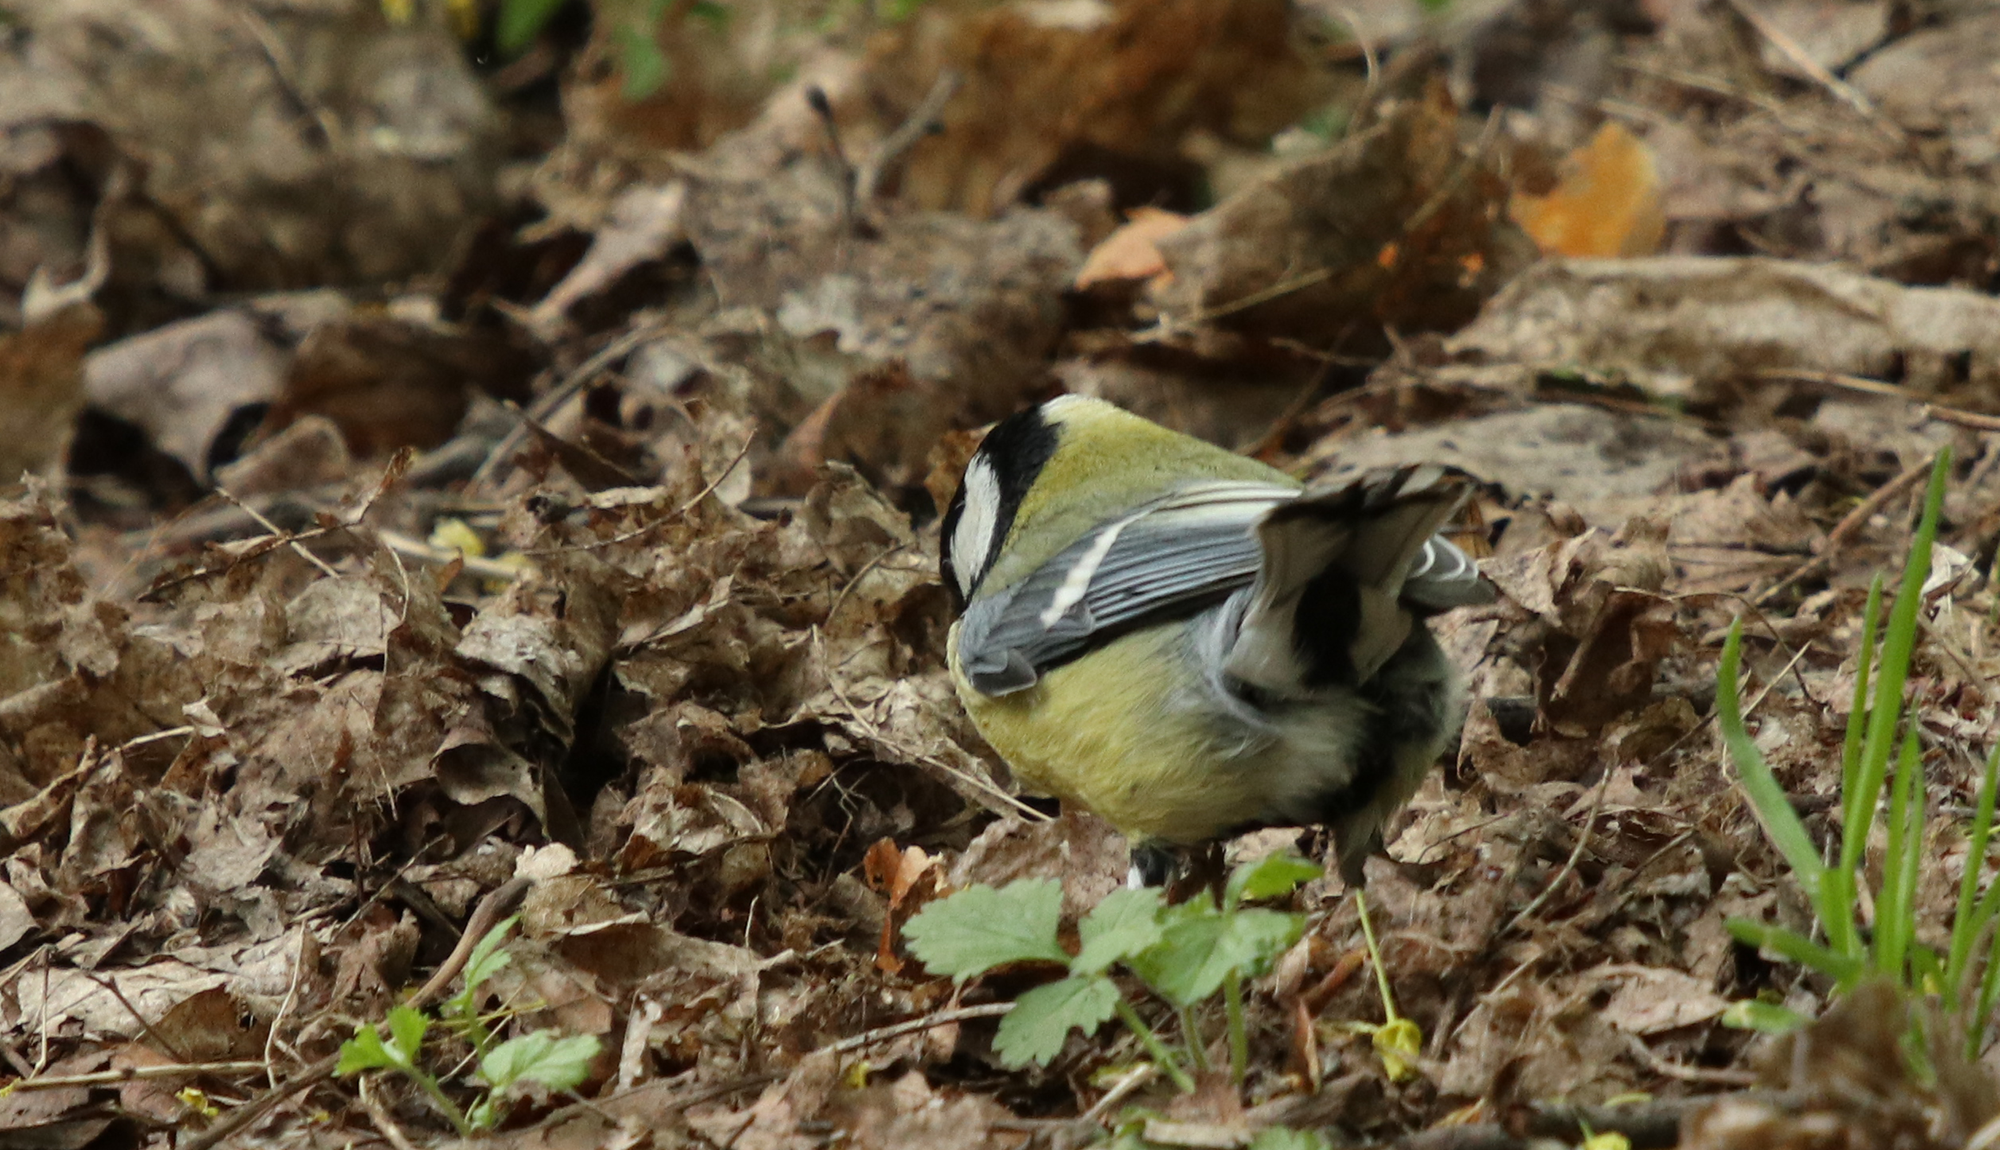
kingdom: Animalia
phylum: Chordata
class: Aves
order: Passeriformes
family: Paridae
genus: Parus
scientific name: Parus major
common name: Great tit
